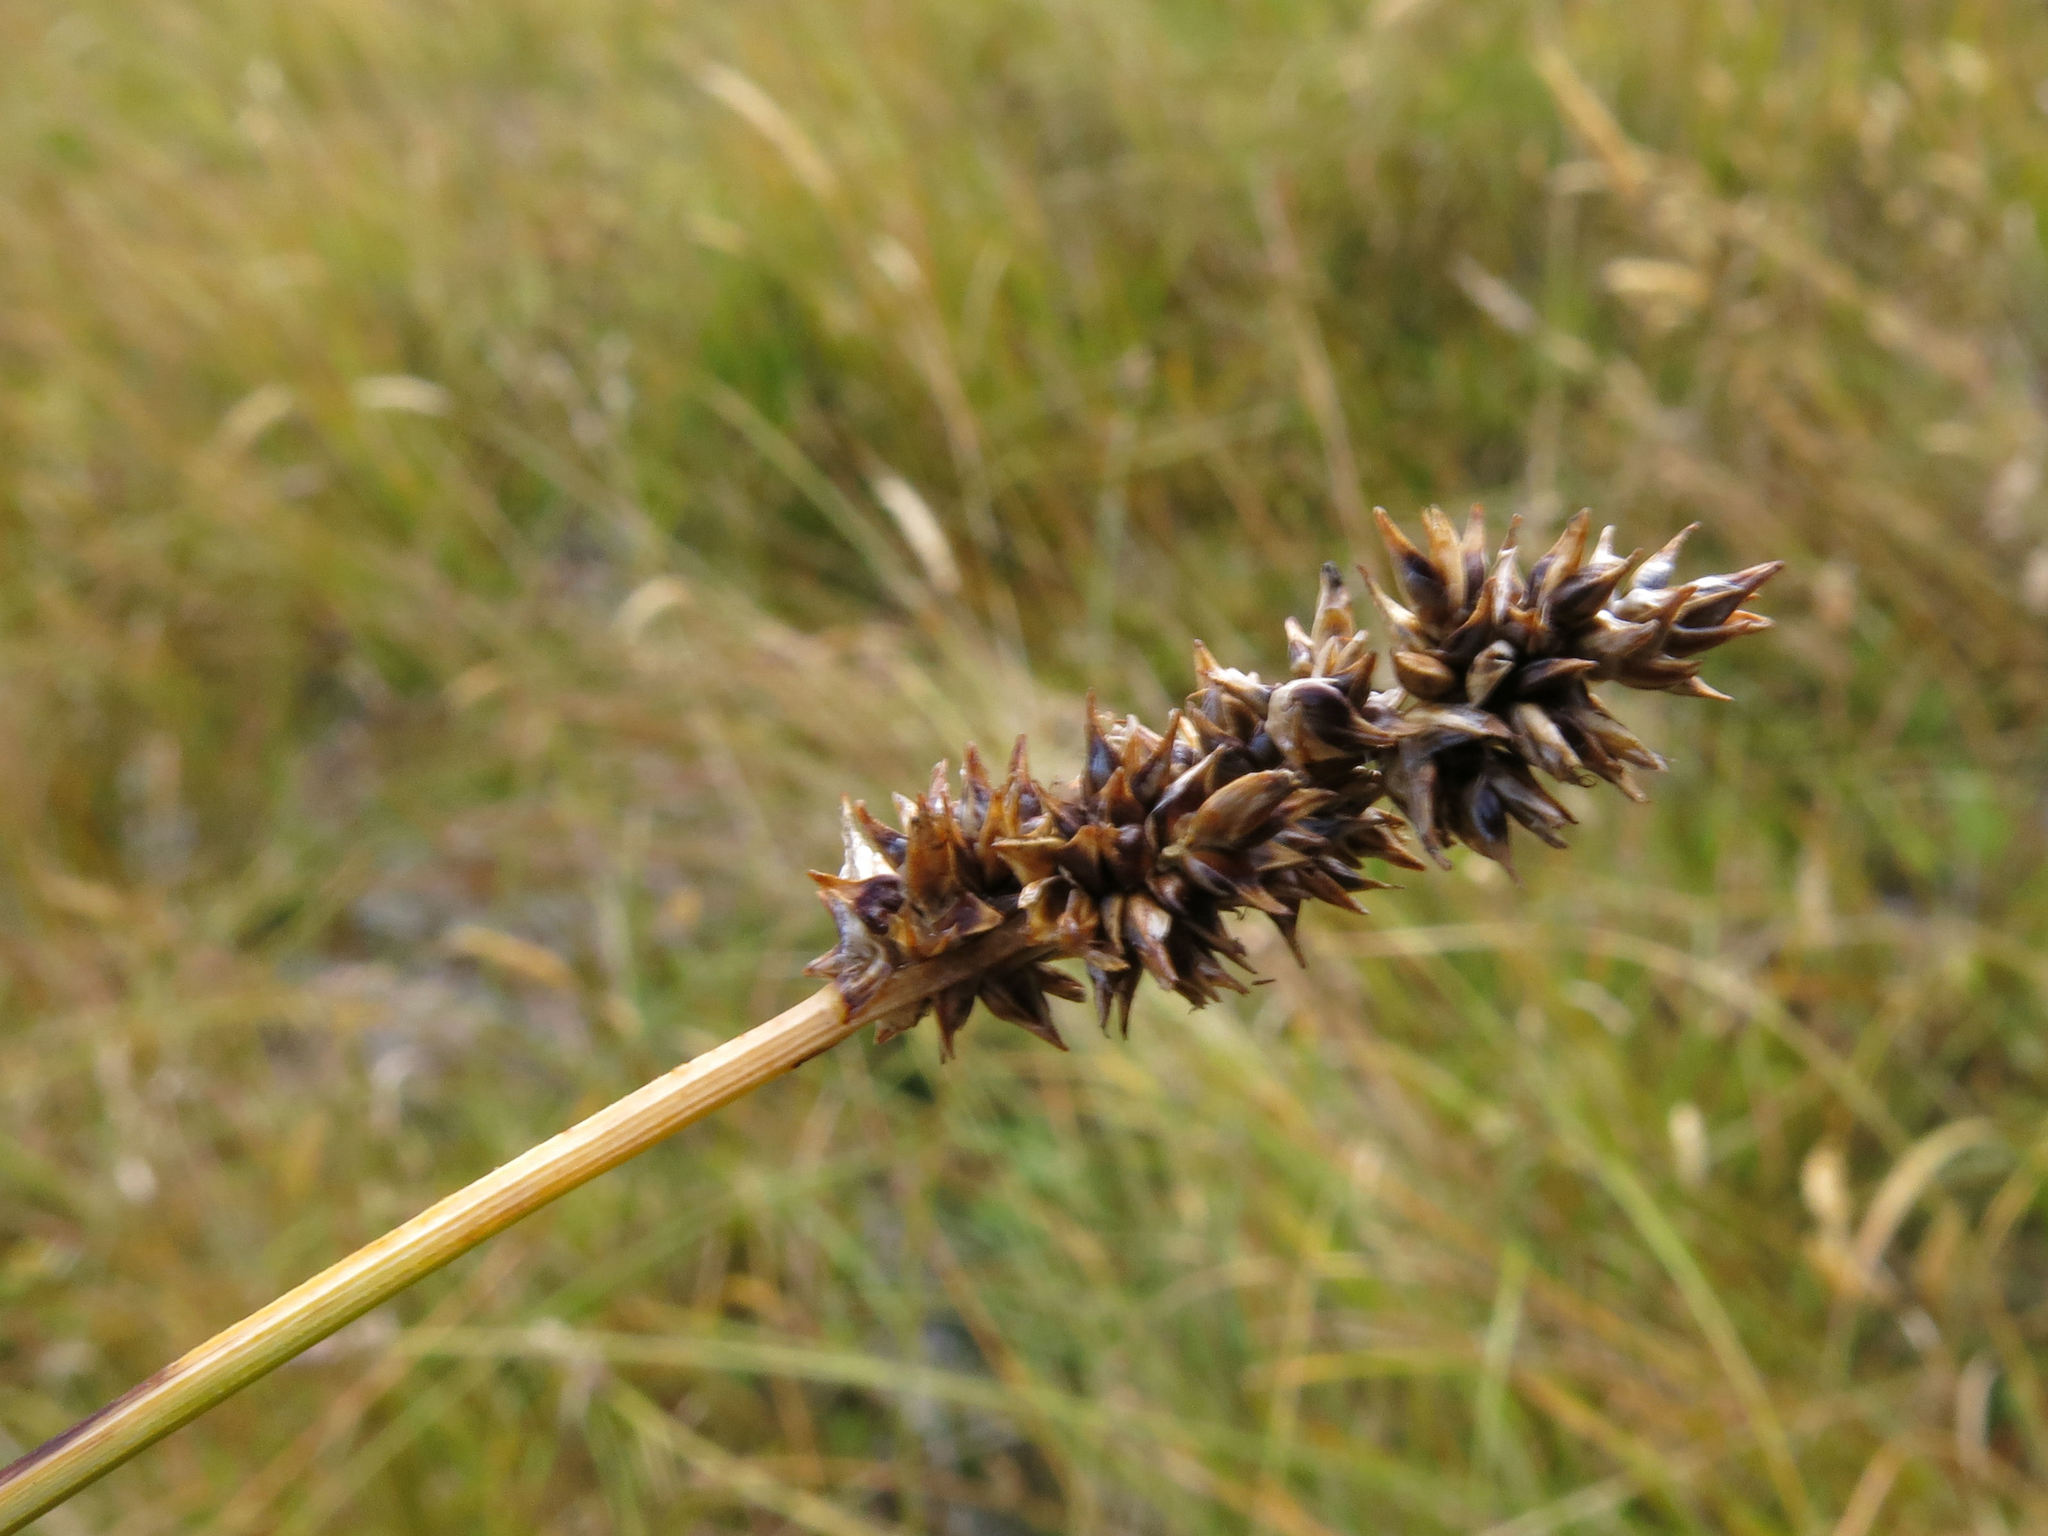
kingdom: Plantae
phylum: Tracheophyta
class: Liliopsida
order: Poales
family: Cyperaceae
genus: Carex
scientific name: Carex diandra
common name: Lesser tussock-sedge
